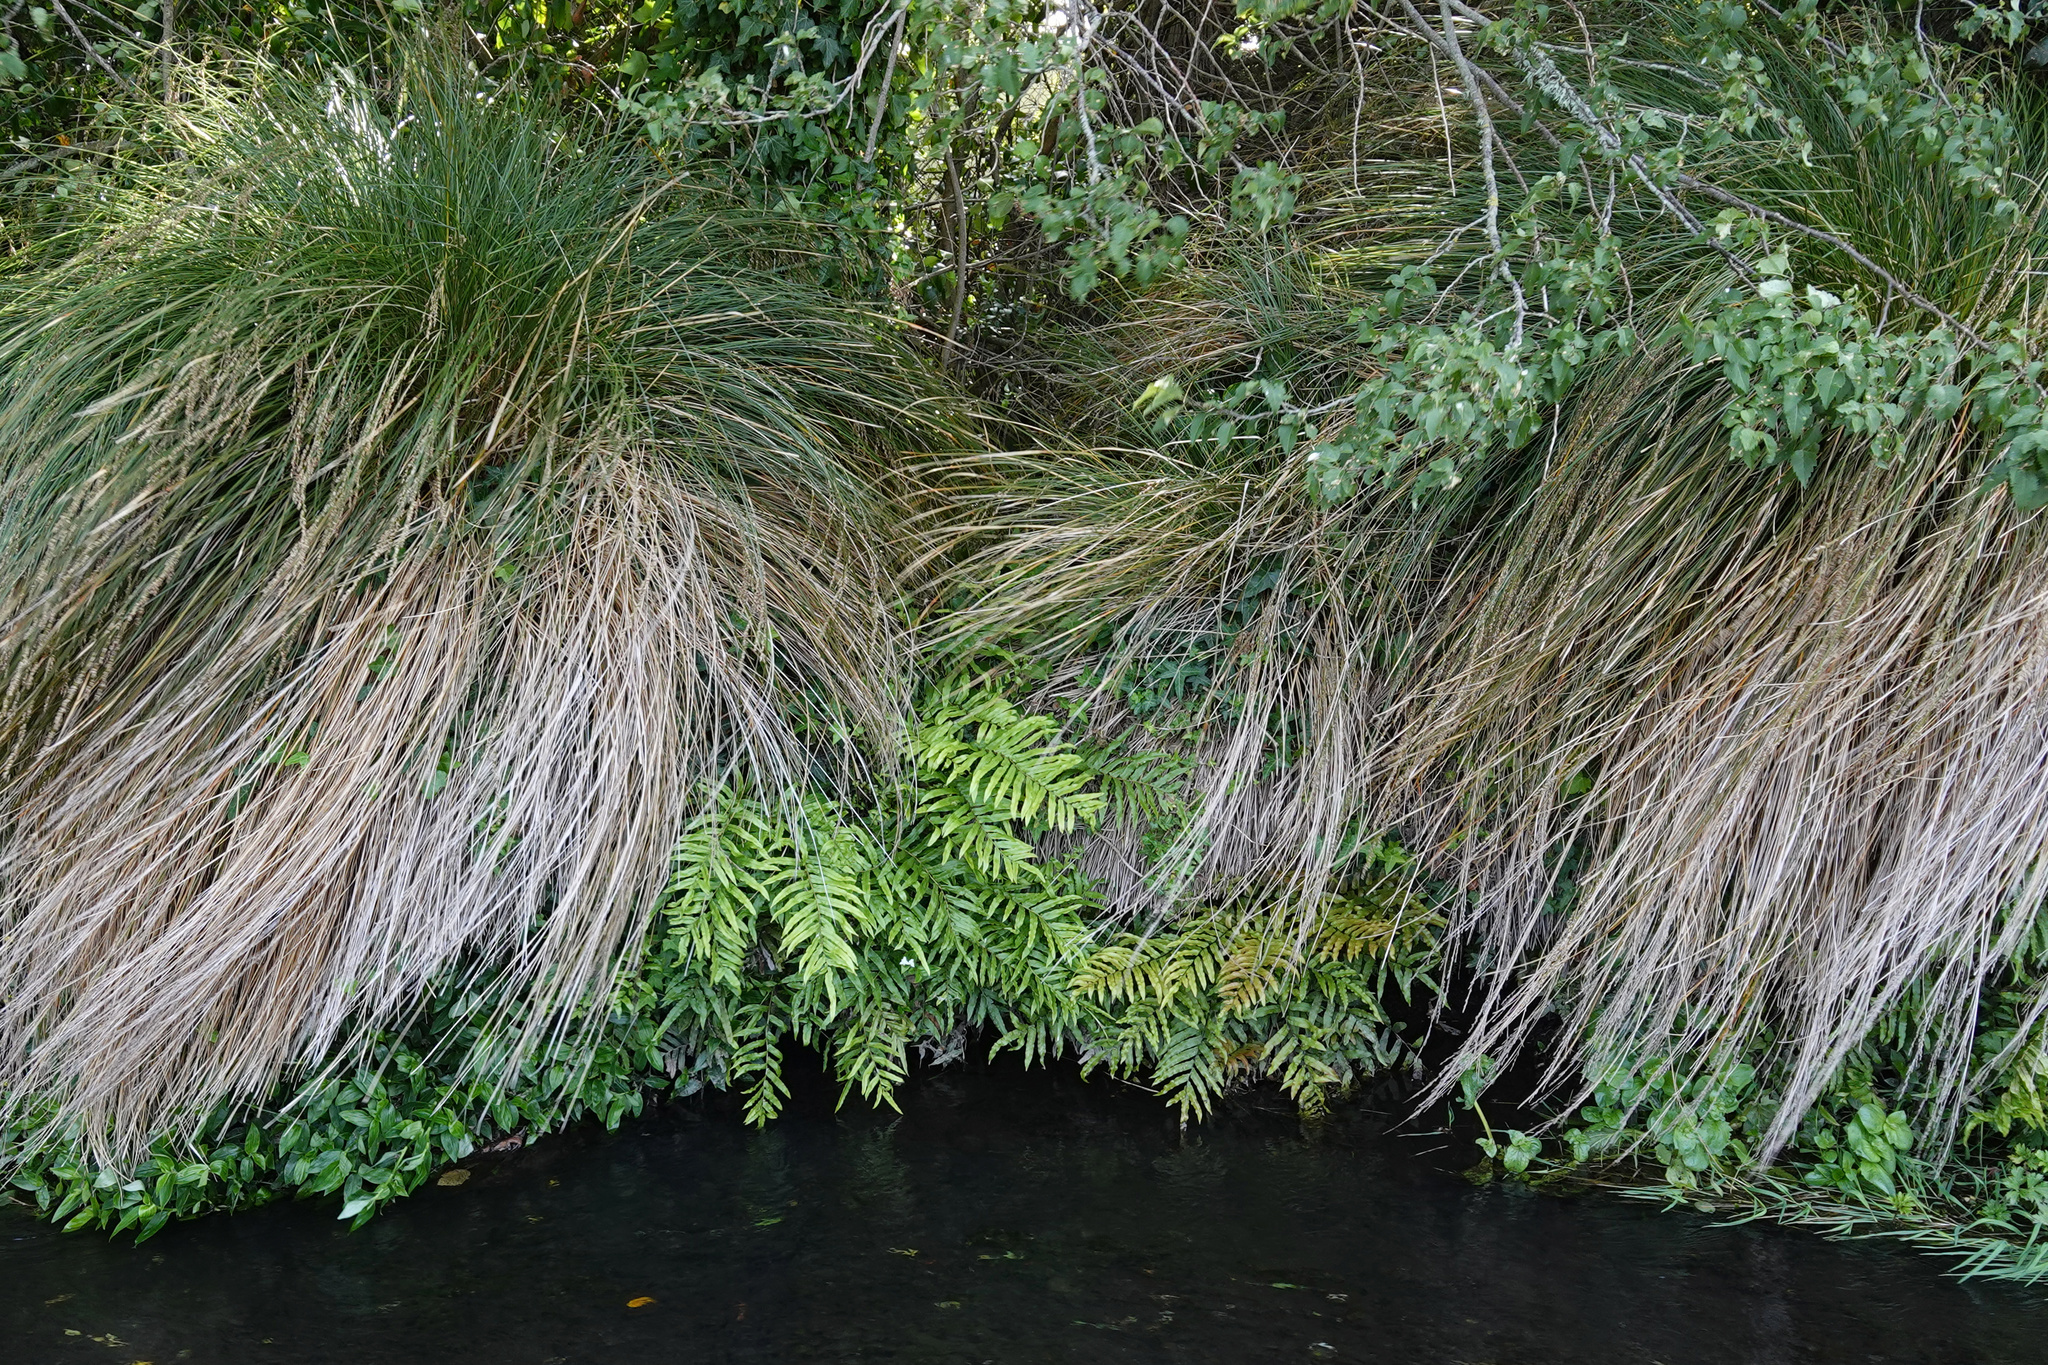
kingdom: Plantae
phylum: Tracheophyta
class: Polypodiopsida
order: Polypodiales
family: Blechnaceae
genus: Parablechnum
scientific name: Parablechnum minus
